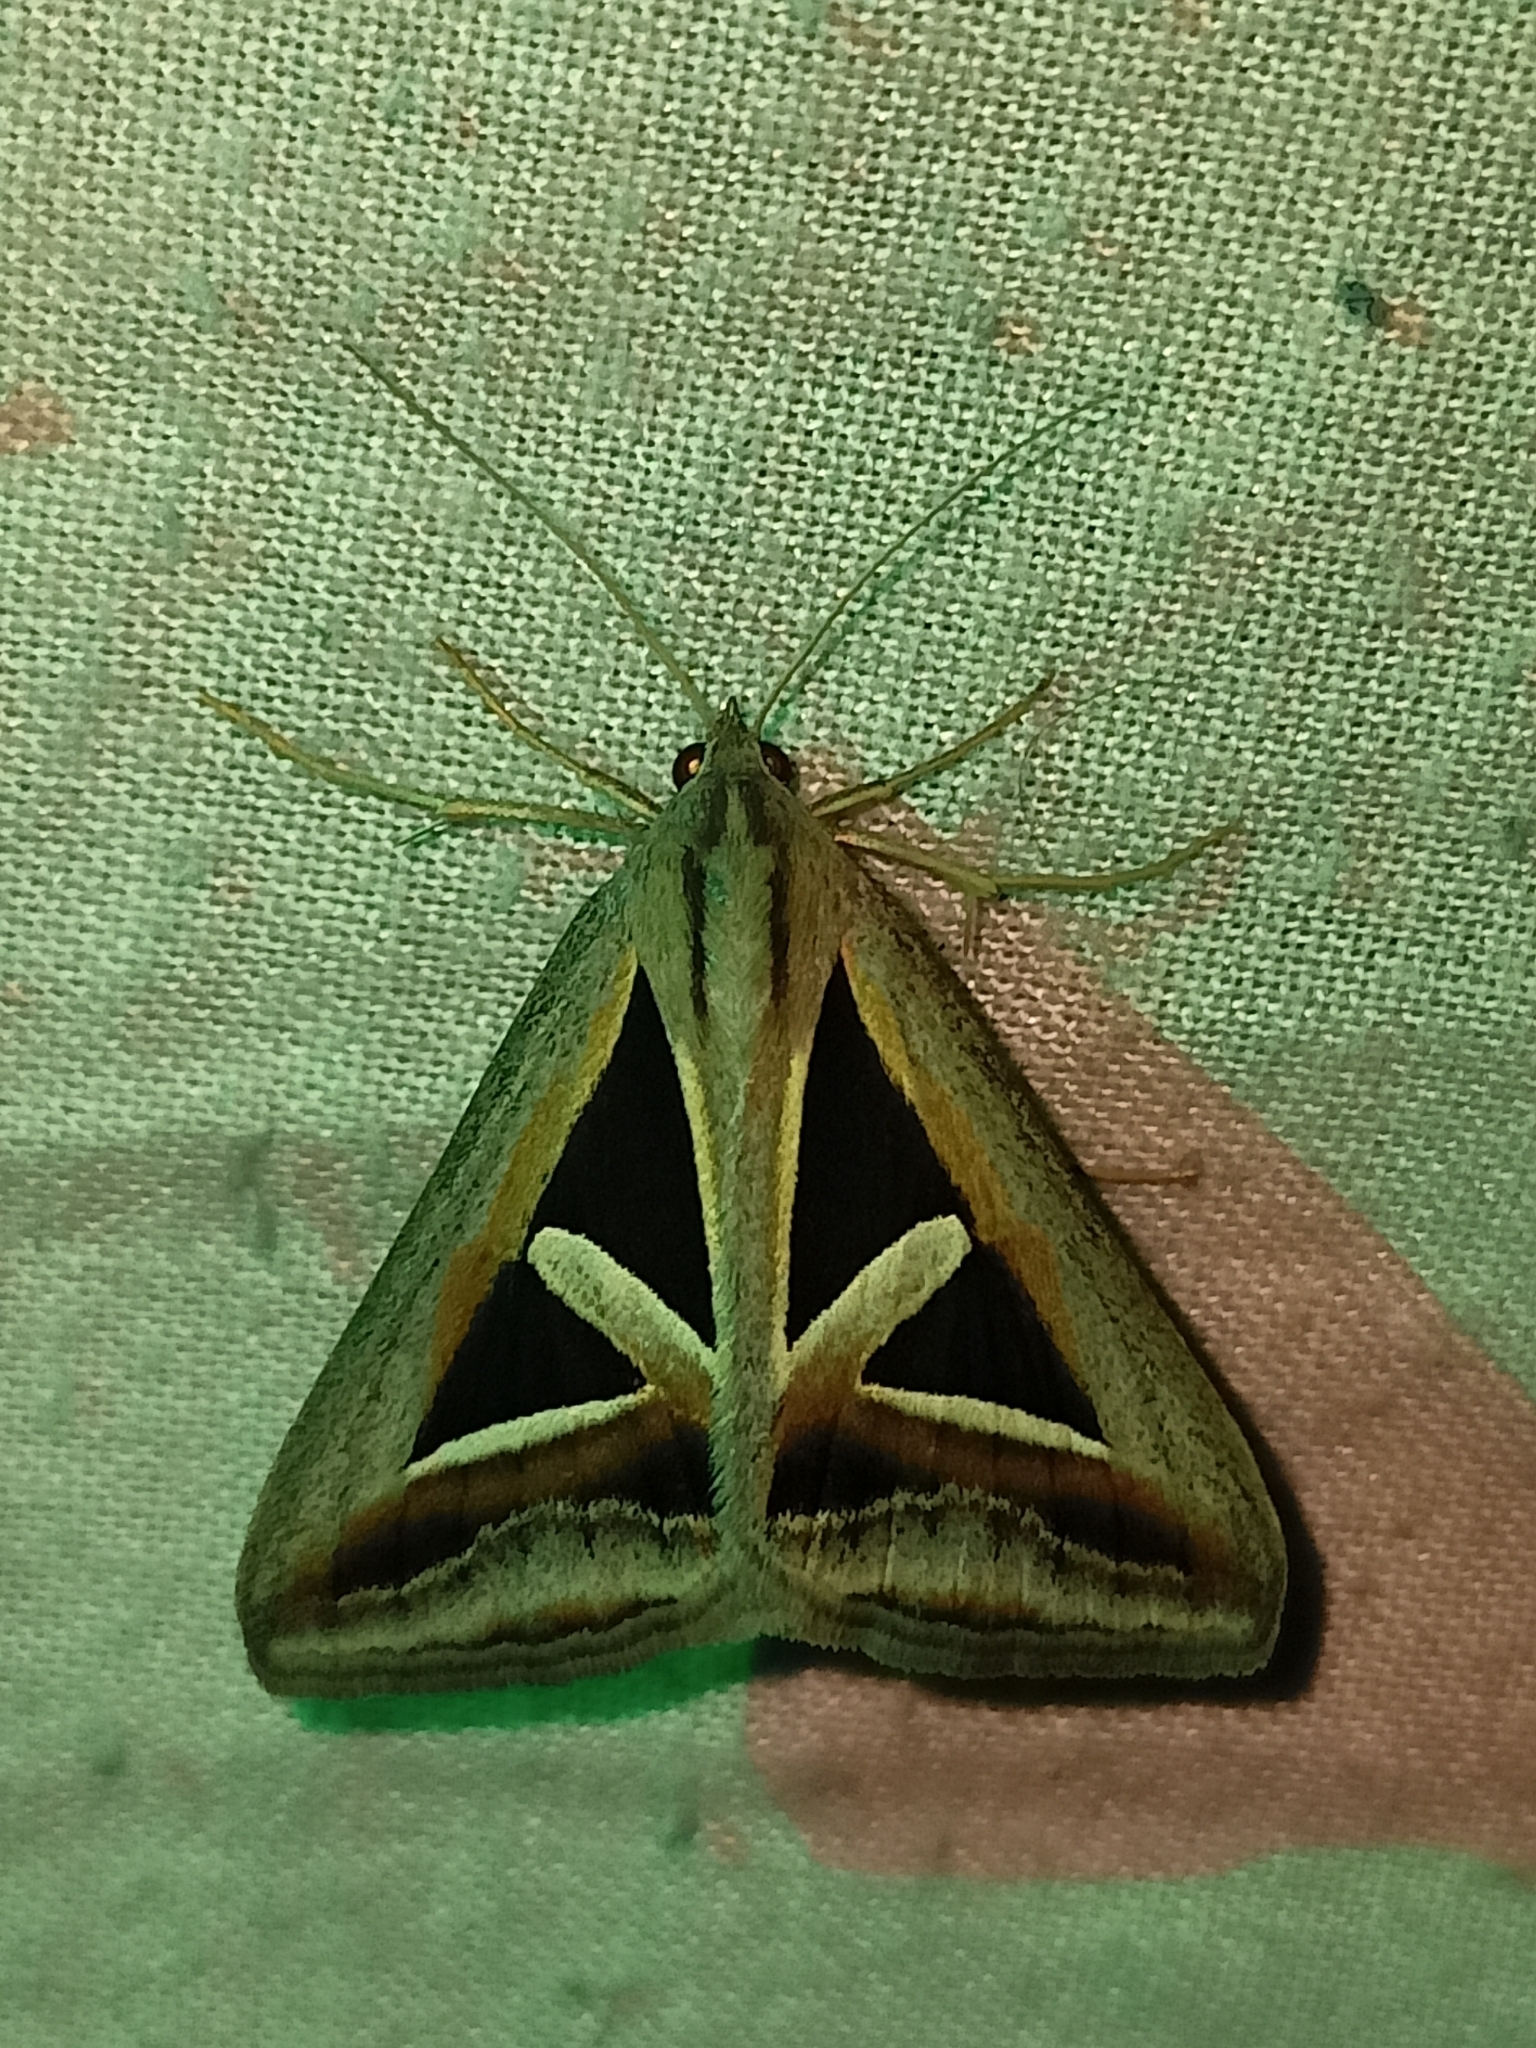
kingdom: Animalia
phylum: Arthropoda
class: Insecta
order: Lepidoptera
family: Erebidae
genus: Trigonodes
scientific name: Trigonodes hyppasia
